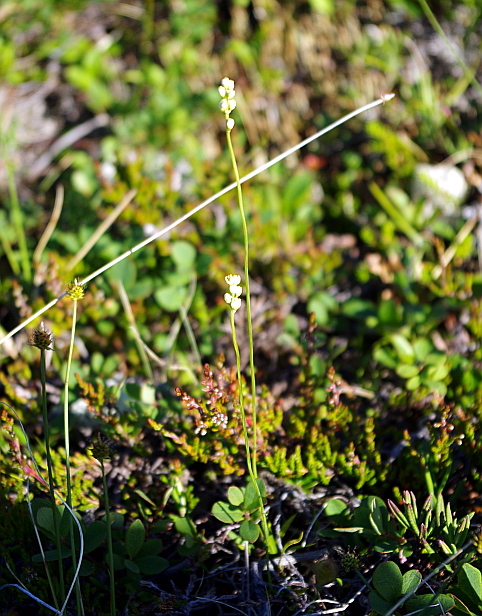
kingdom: Plantae
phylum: Tracheophyta
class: Liliopsida
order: Alismatales
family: Tofieldiaceae
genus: Tofieldia
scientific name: Tofieldia pusilla
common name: Scottish false asphodel
